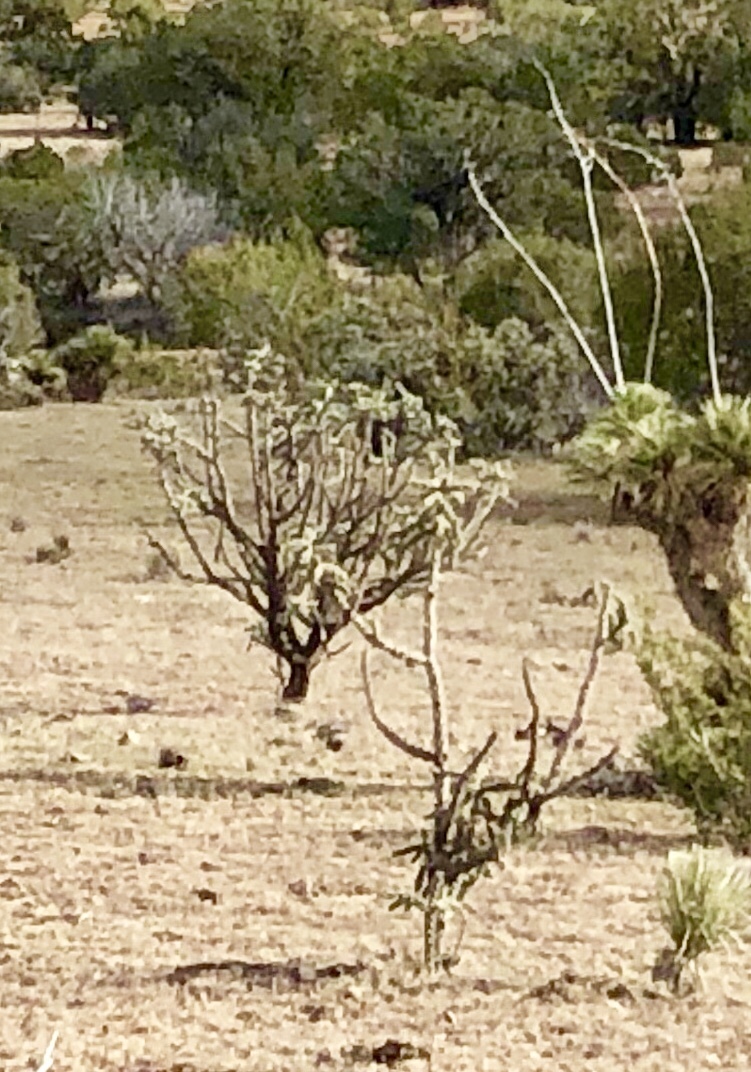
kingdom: Plantae
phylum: Tracheophyta
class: Magnoliopsida
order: Caryophyllales
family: Cactaceae
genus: Cylindropuntia
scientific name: Cylindropuntia imbricata
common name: Candelabrum cactus
